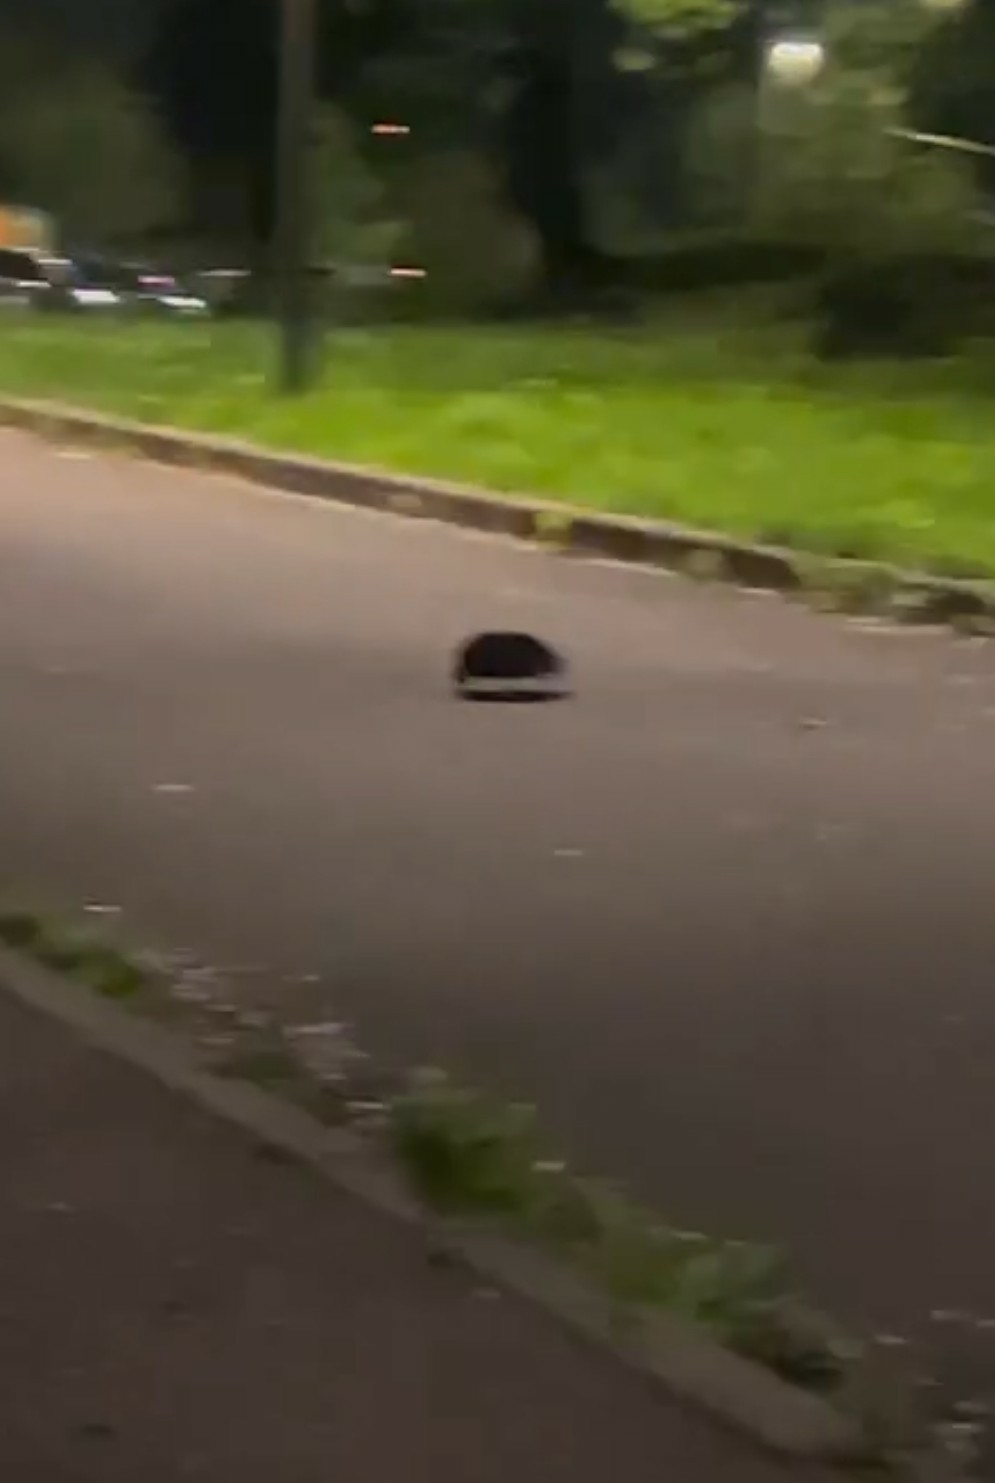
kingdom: Animalia
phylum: Chordata
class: Mammalia
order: Erinaceomorpha
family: Erinaceidae
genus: Erinaceus
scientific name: Erinaceus europaeus
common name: West european hedgehog
